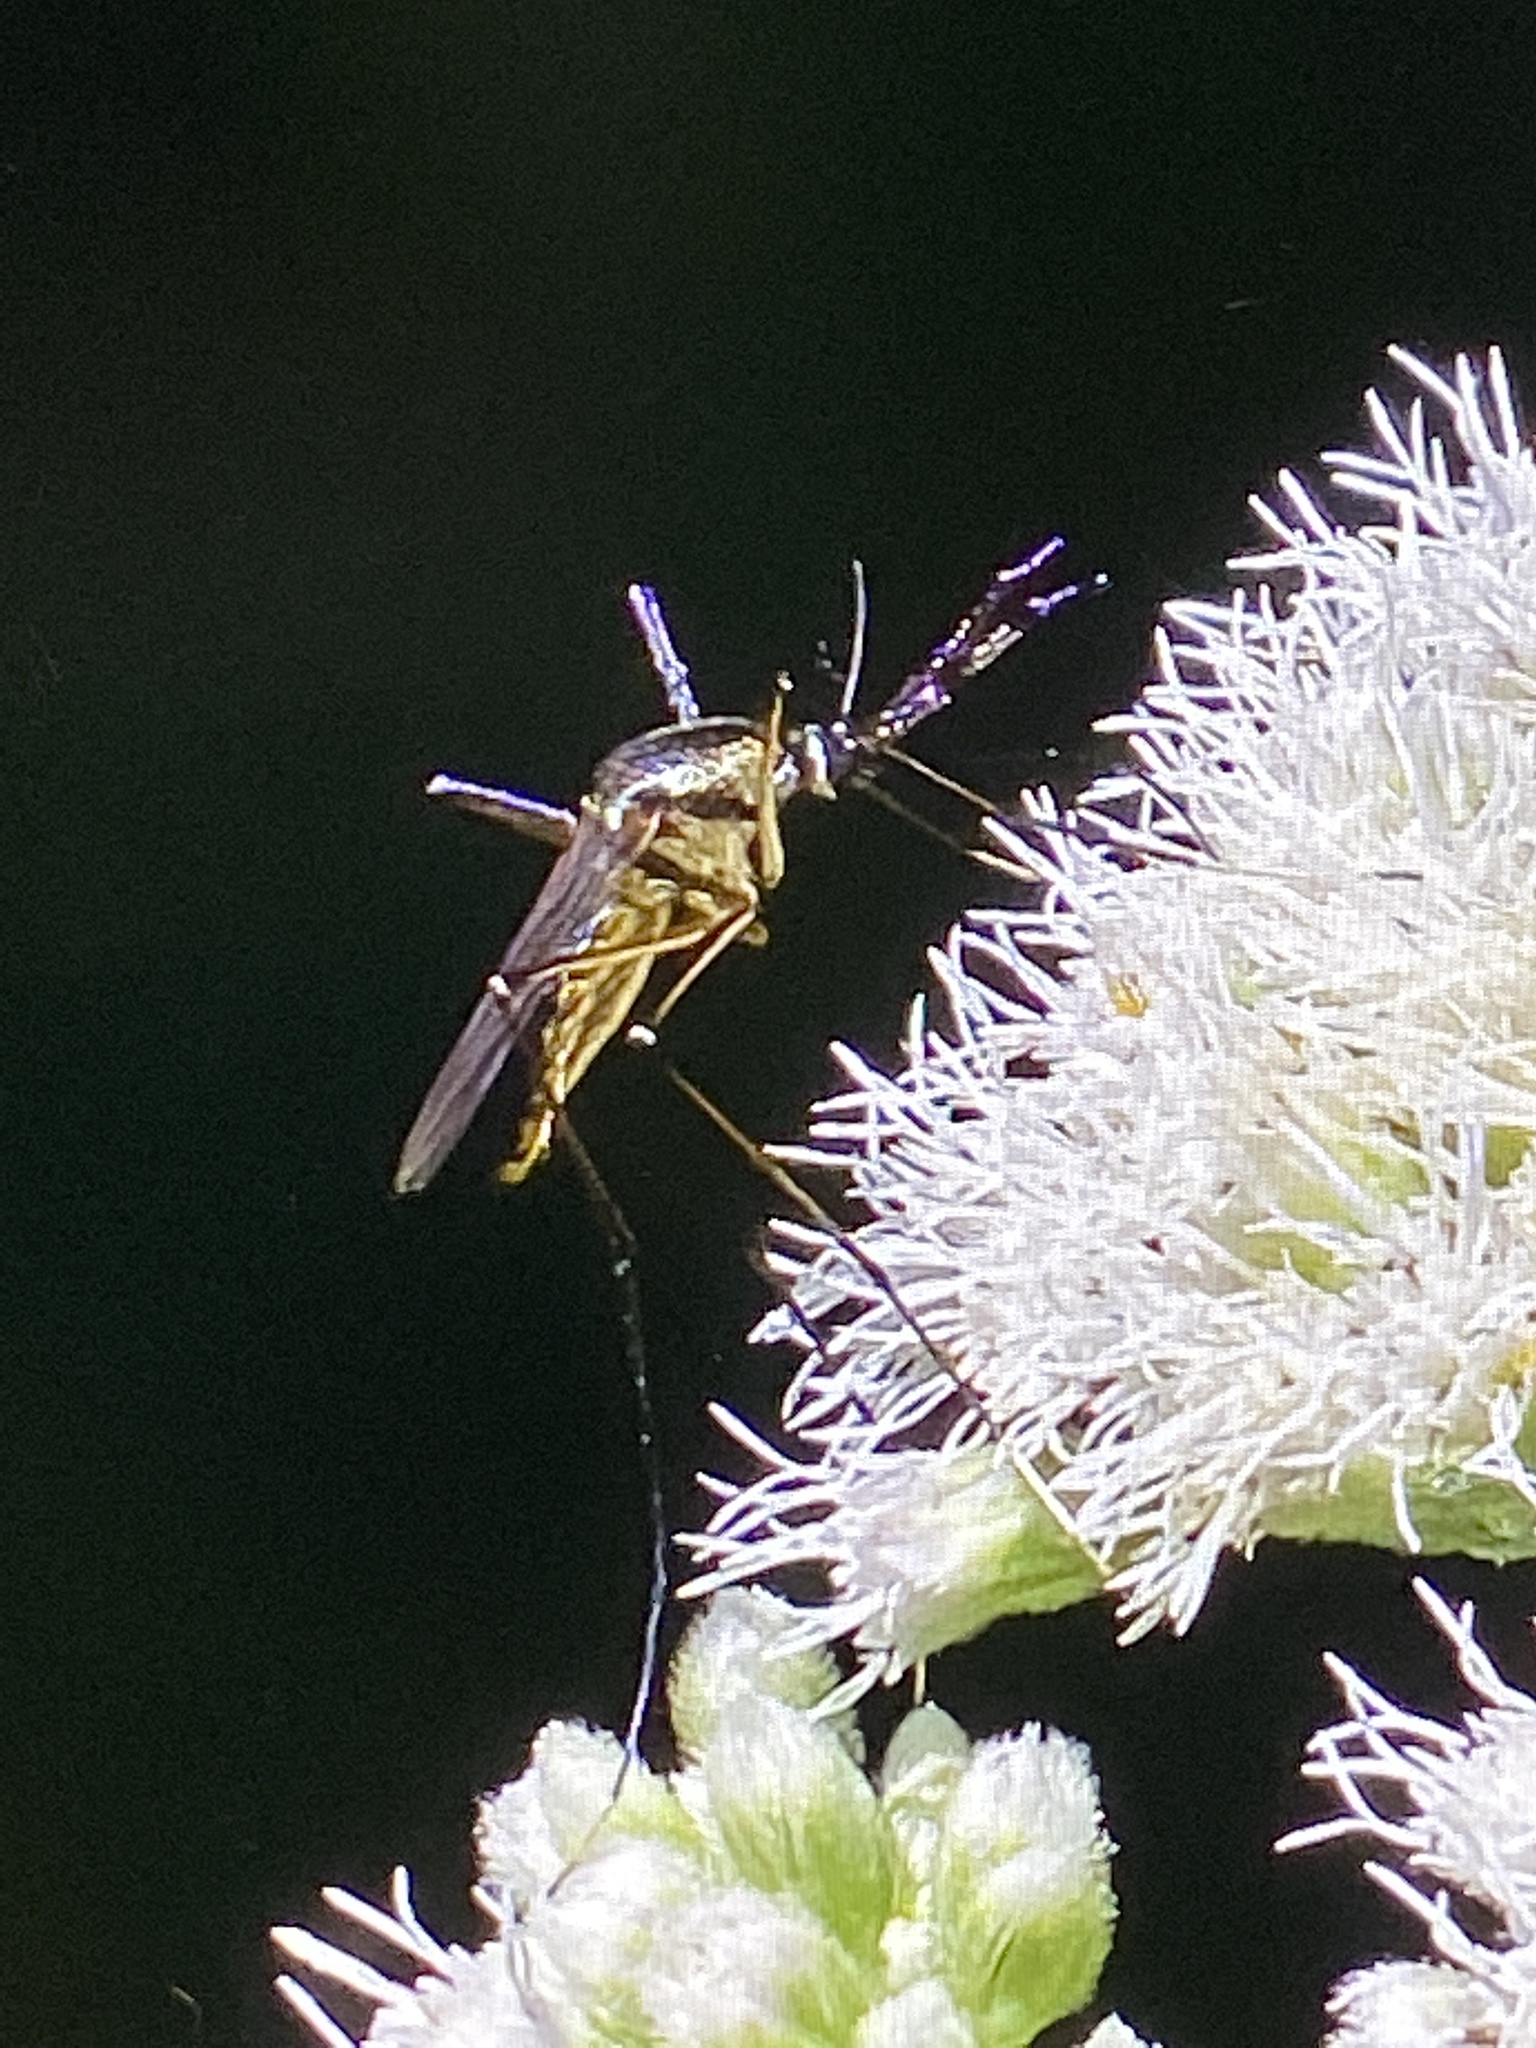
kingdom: Animalia
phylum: Arthropoda
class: Insecta
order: Diptera
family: Culicidae
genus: Toxorhynchites
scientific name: Toxorhynchites rutilus
